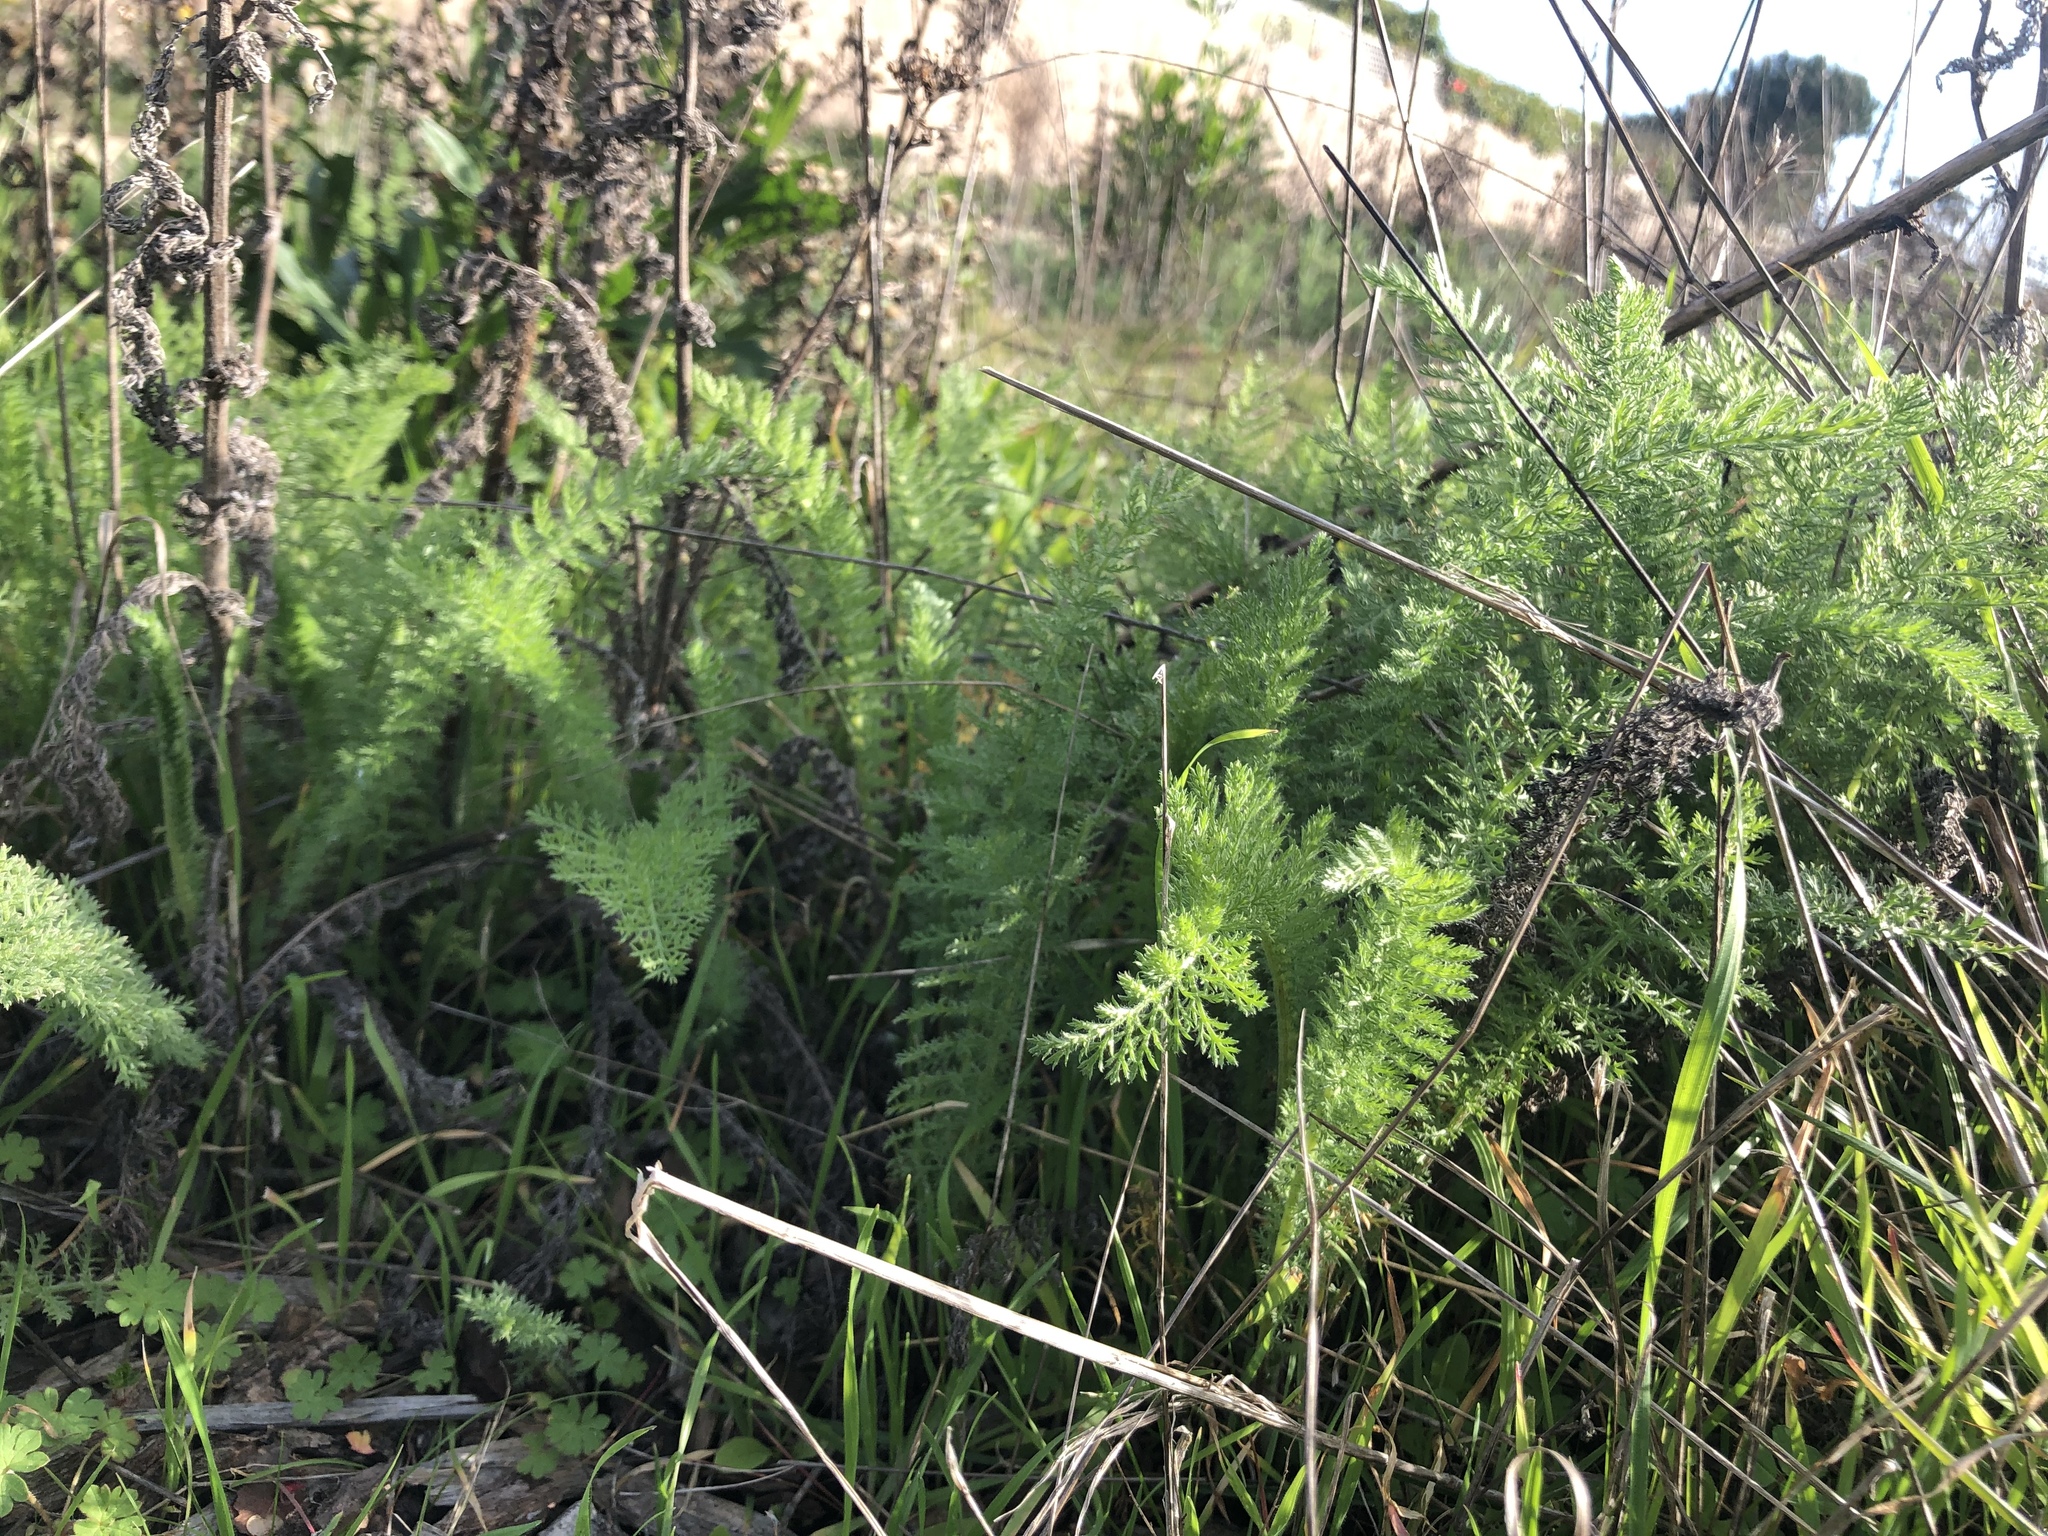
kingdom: Plantae
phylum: Tracheophyta
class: Magnoliopsida
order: Asterales
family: Asteraceae
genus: Achillea
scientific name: Achillea millefolium
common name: Yarrow
